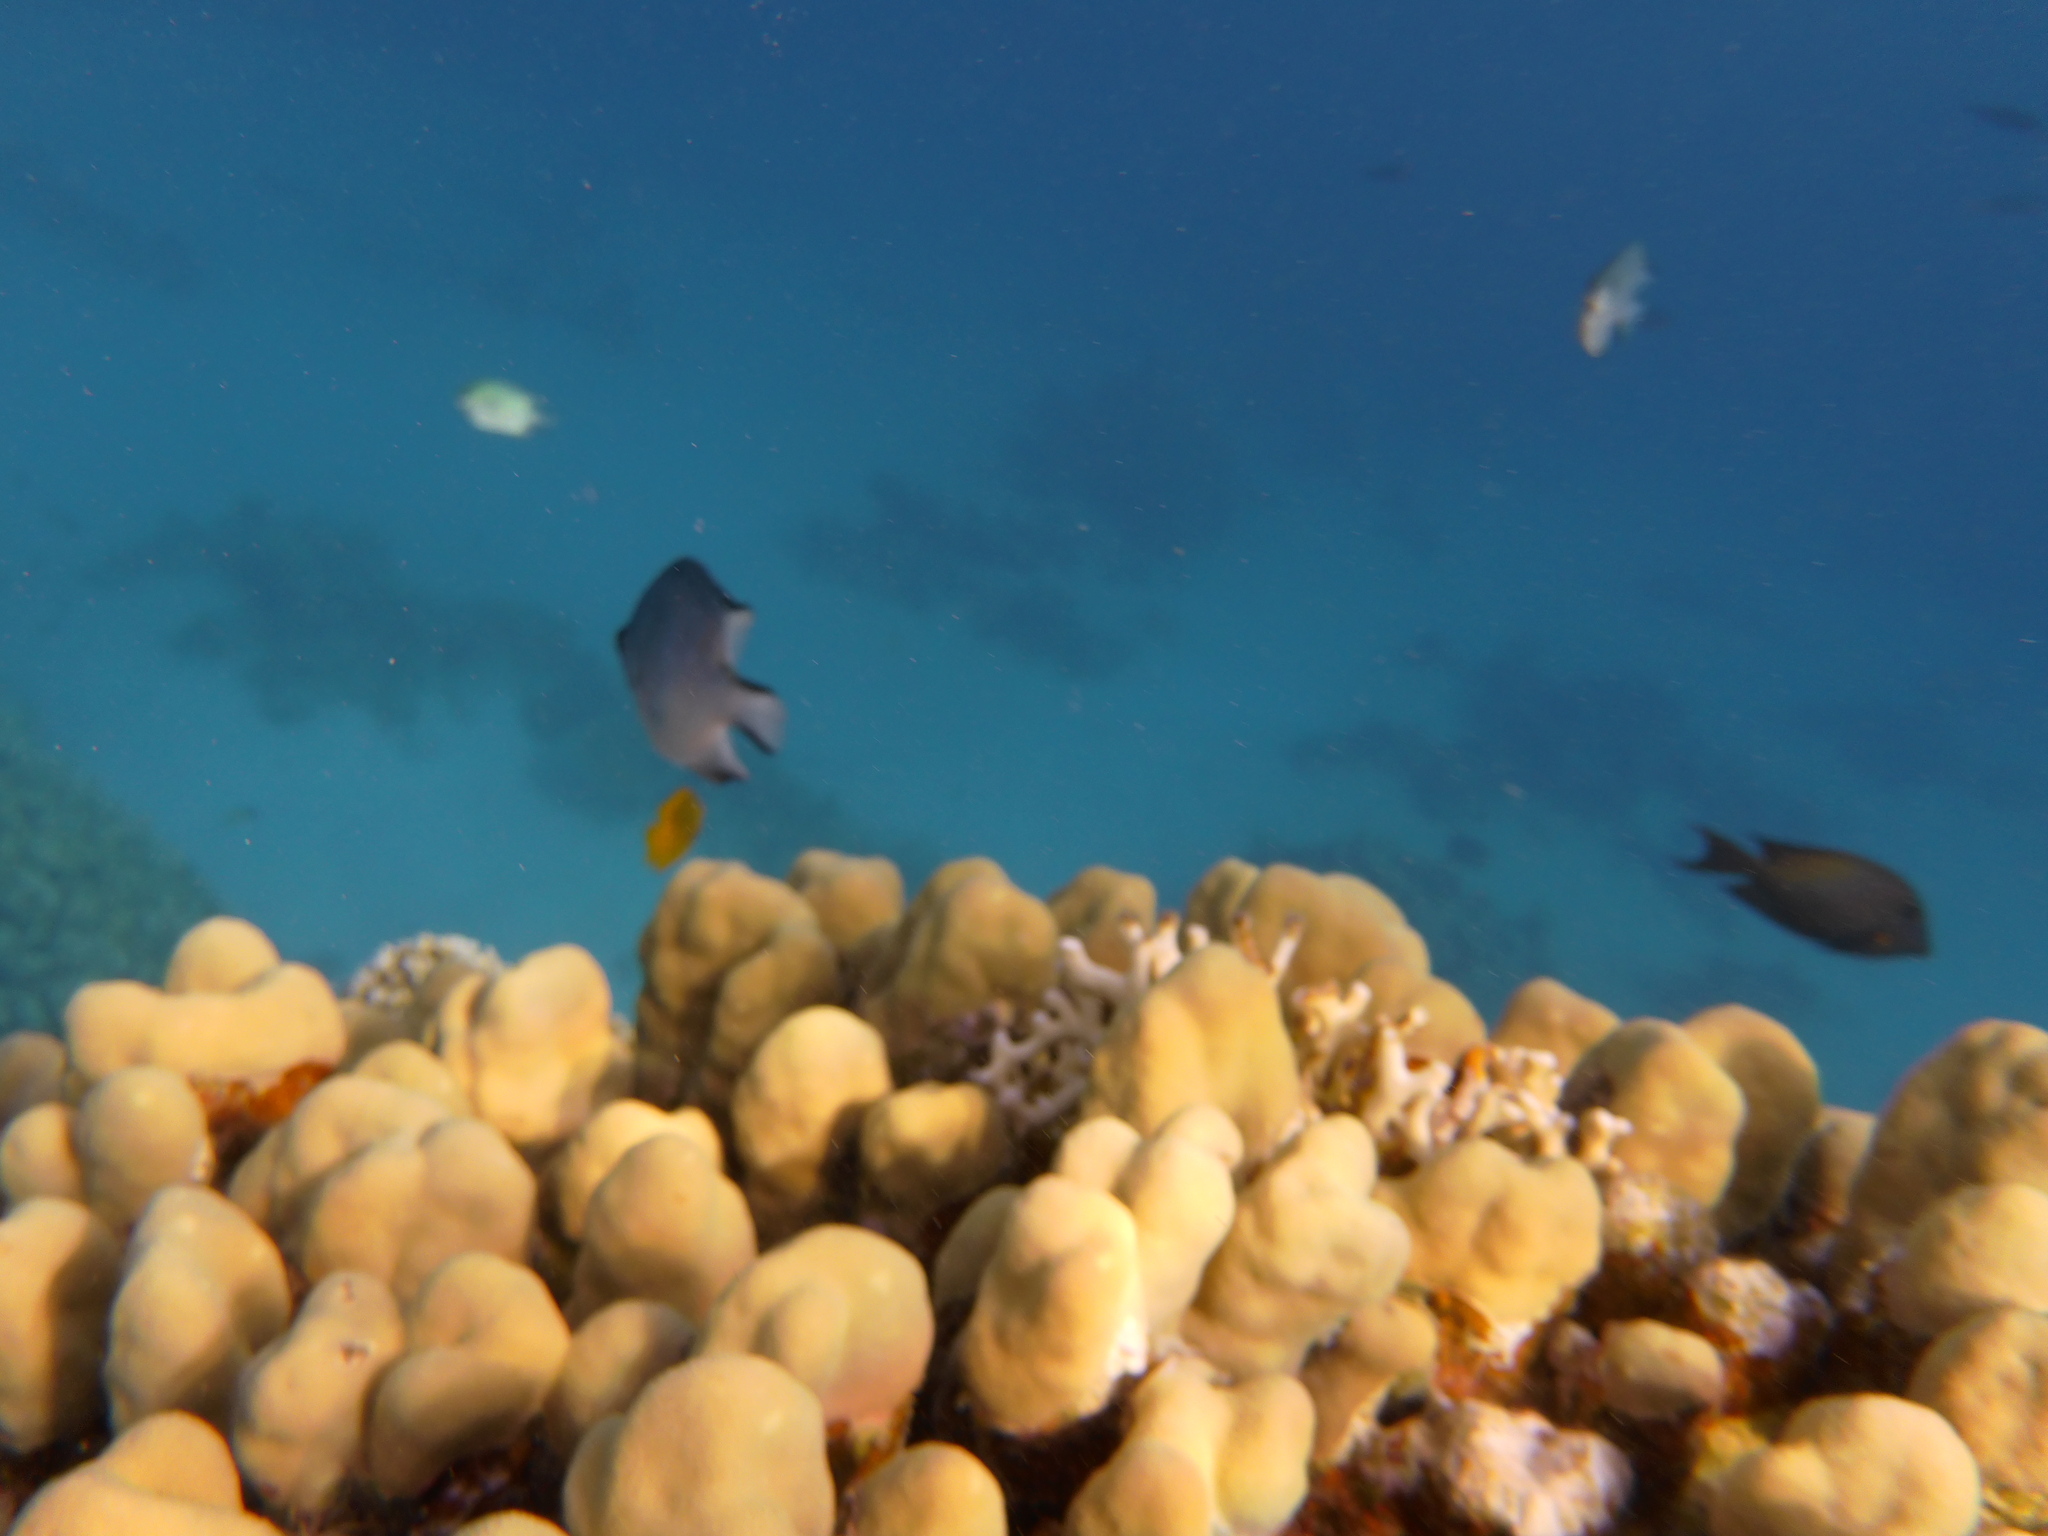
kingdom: Animalia
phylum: Chordata
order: Perciformes
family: Pomacentridae
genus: Amblyglyphidodon
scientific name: Amblyglyphidodon indicus
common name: Maldives damselfish
